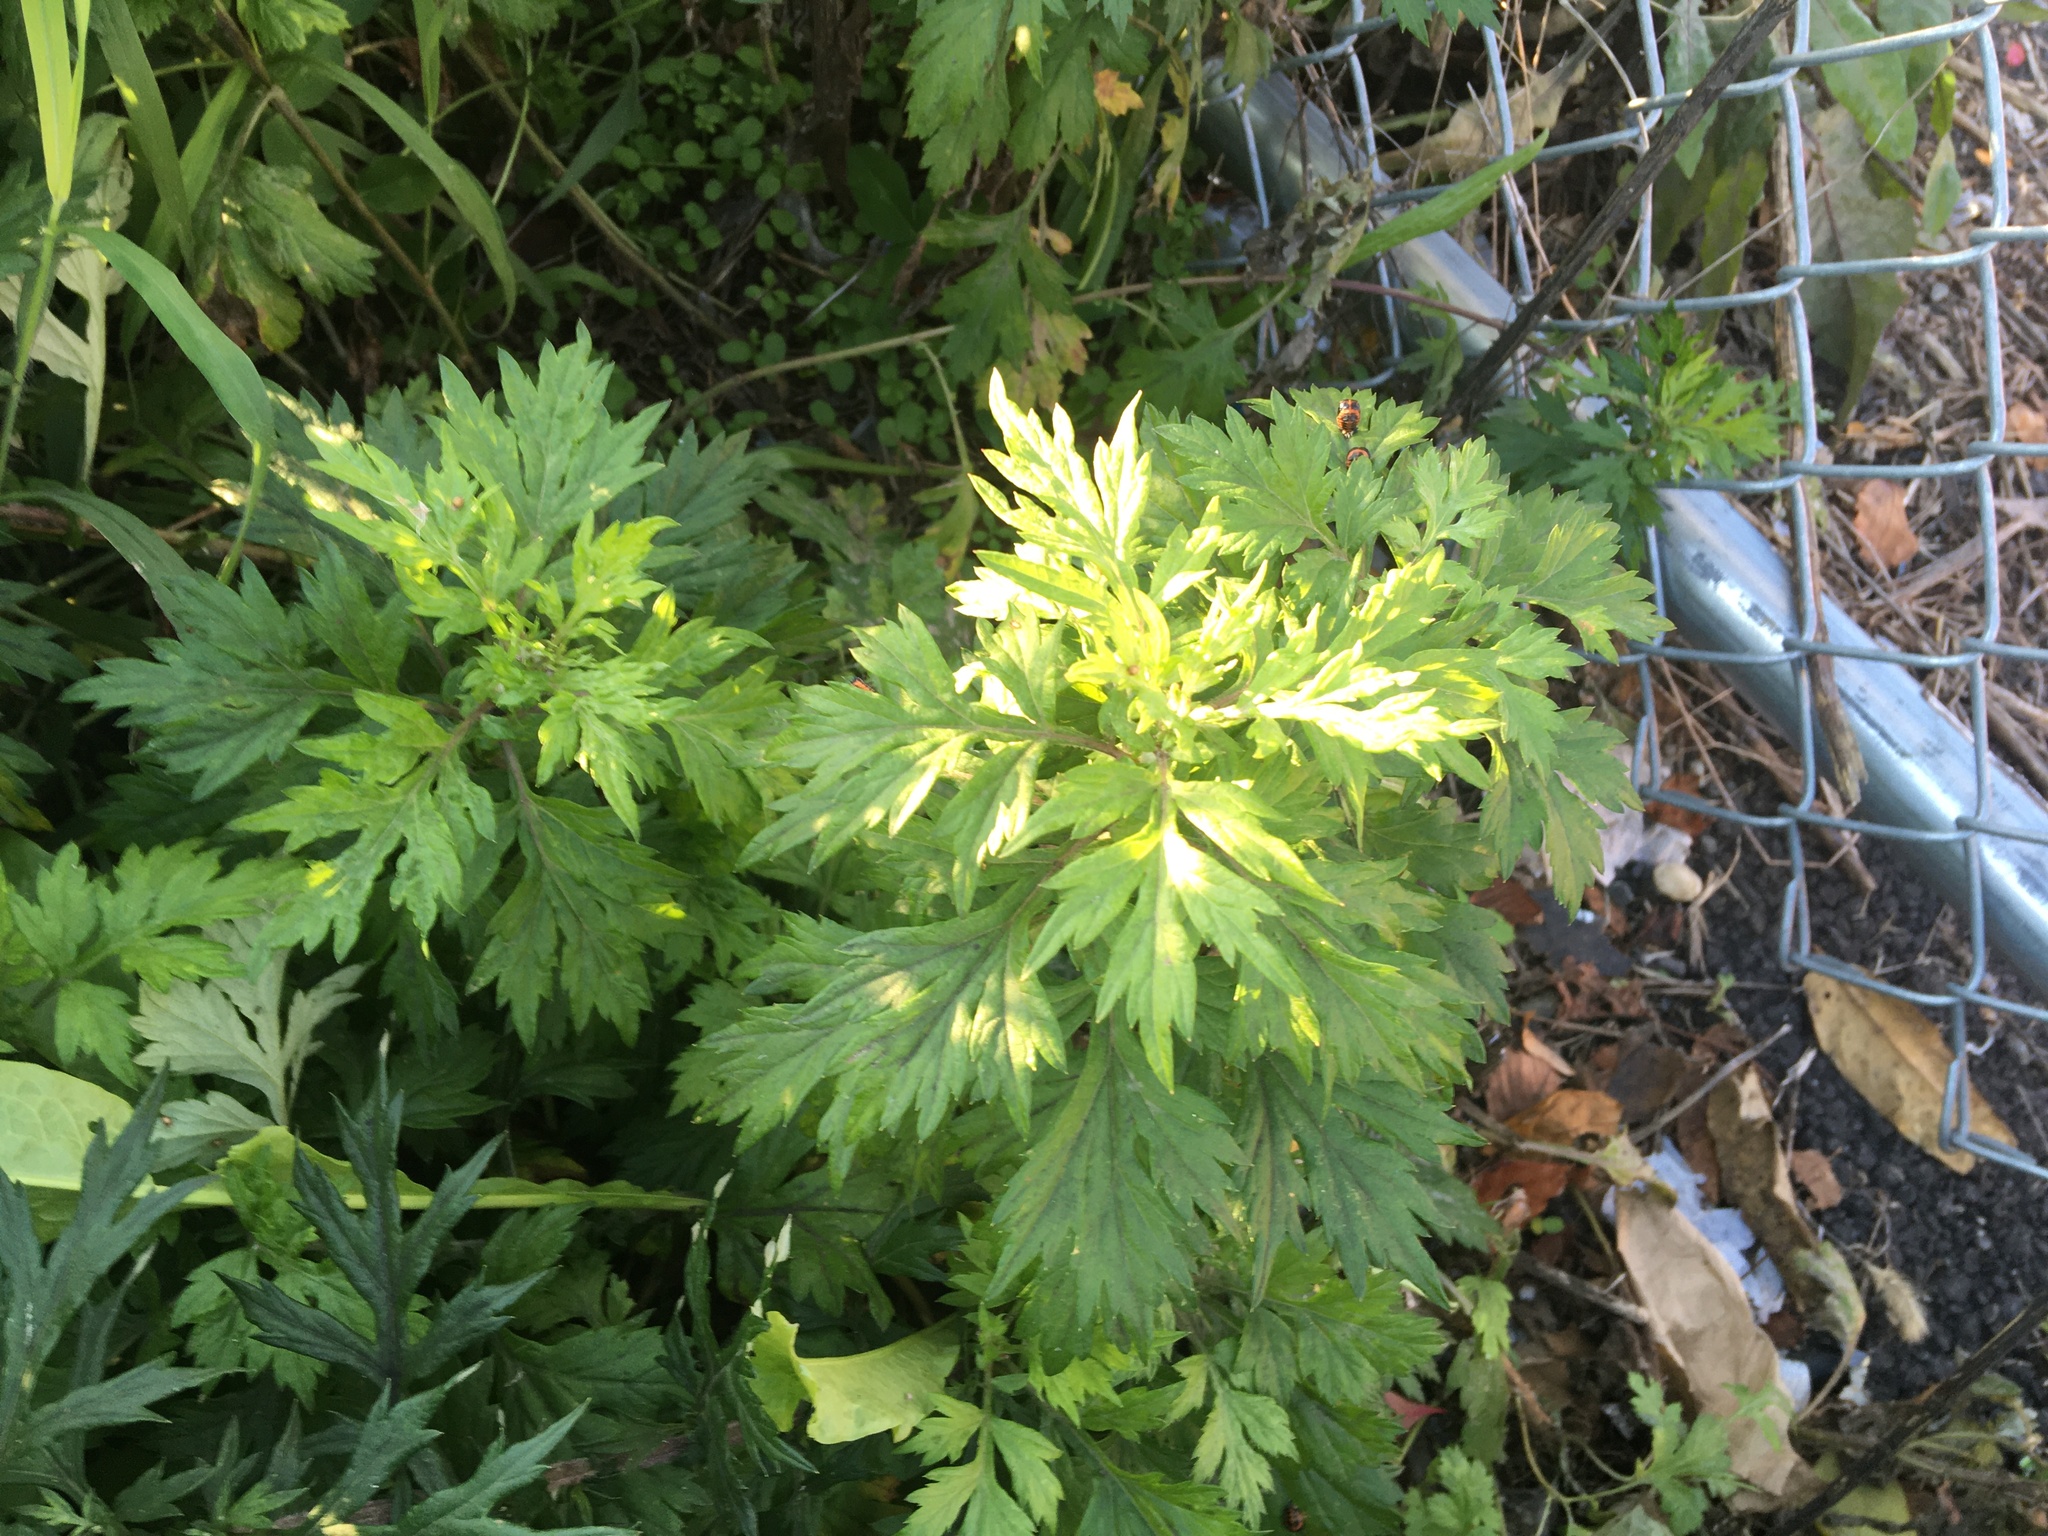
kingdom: Plantae
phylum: Tracheophyta
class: Magnoliopsida
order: Asterales
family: Asteraceae
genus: Artemisia
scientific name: Artemisia vulgaris
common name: Mugwort
